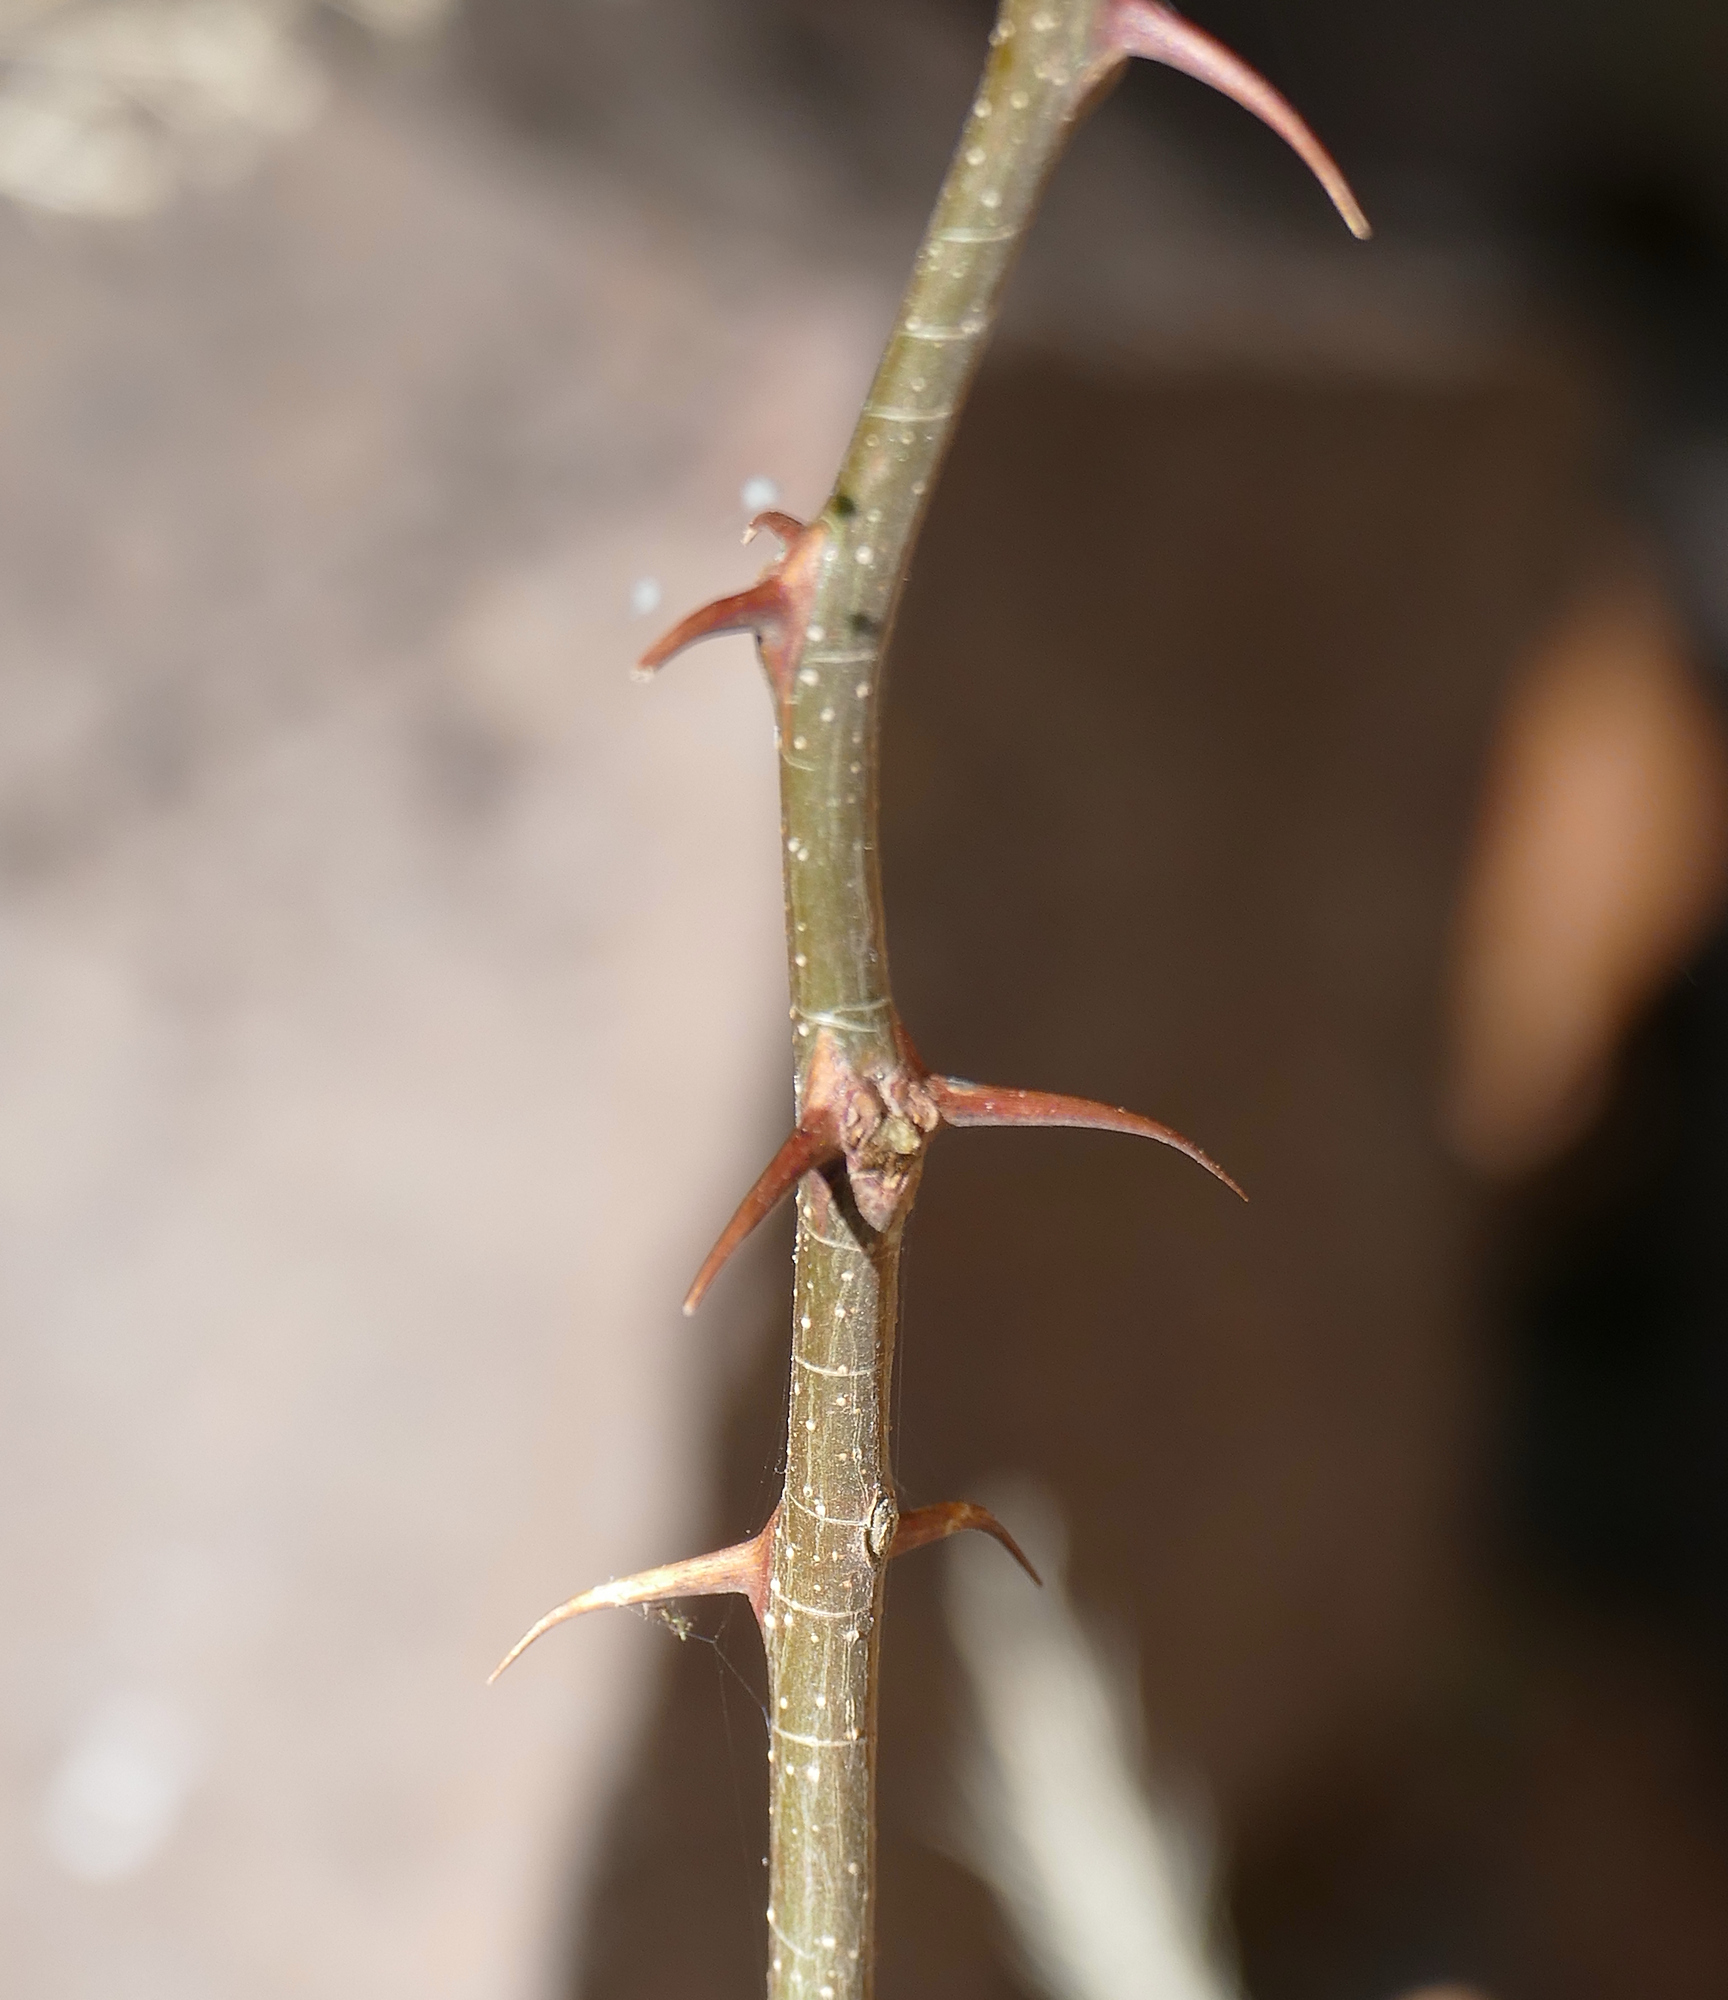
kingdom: Plantae
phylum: Tracheophyta
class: Magnoliopsida
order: Fabales
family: Fabaceae
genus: Robinia
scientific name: Robinia neomexicana
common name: New mexico locust
